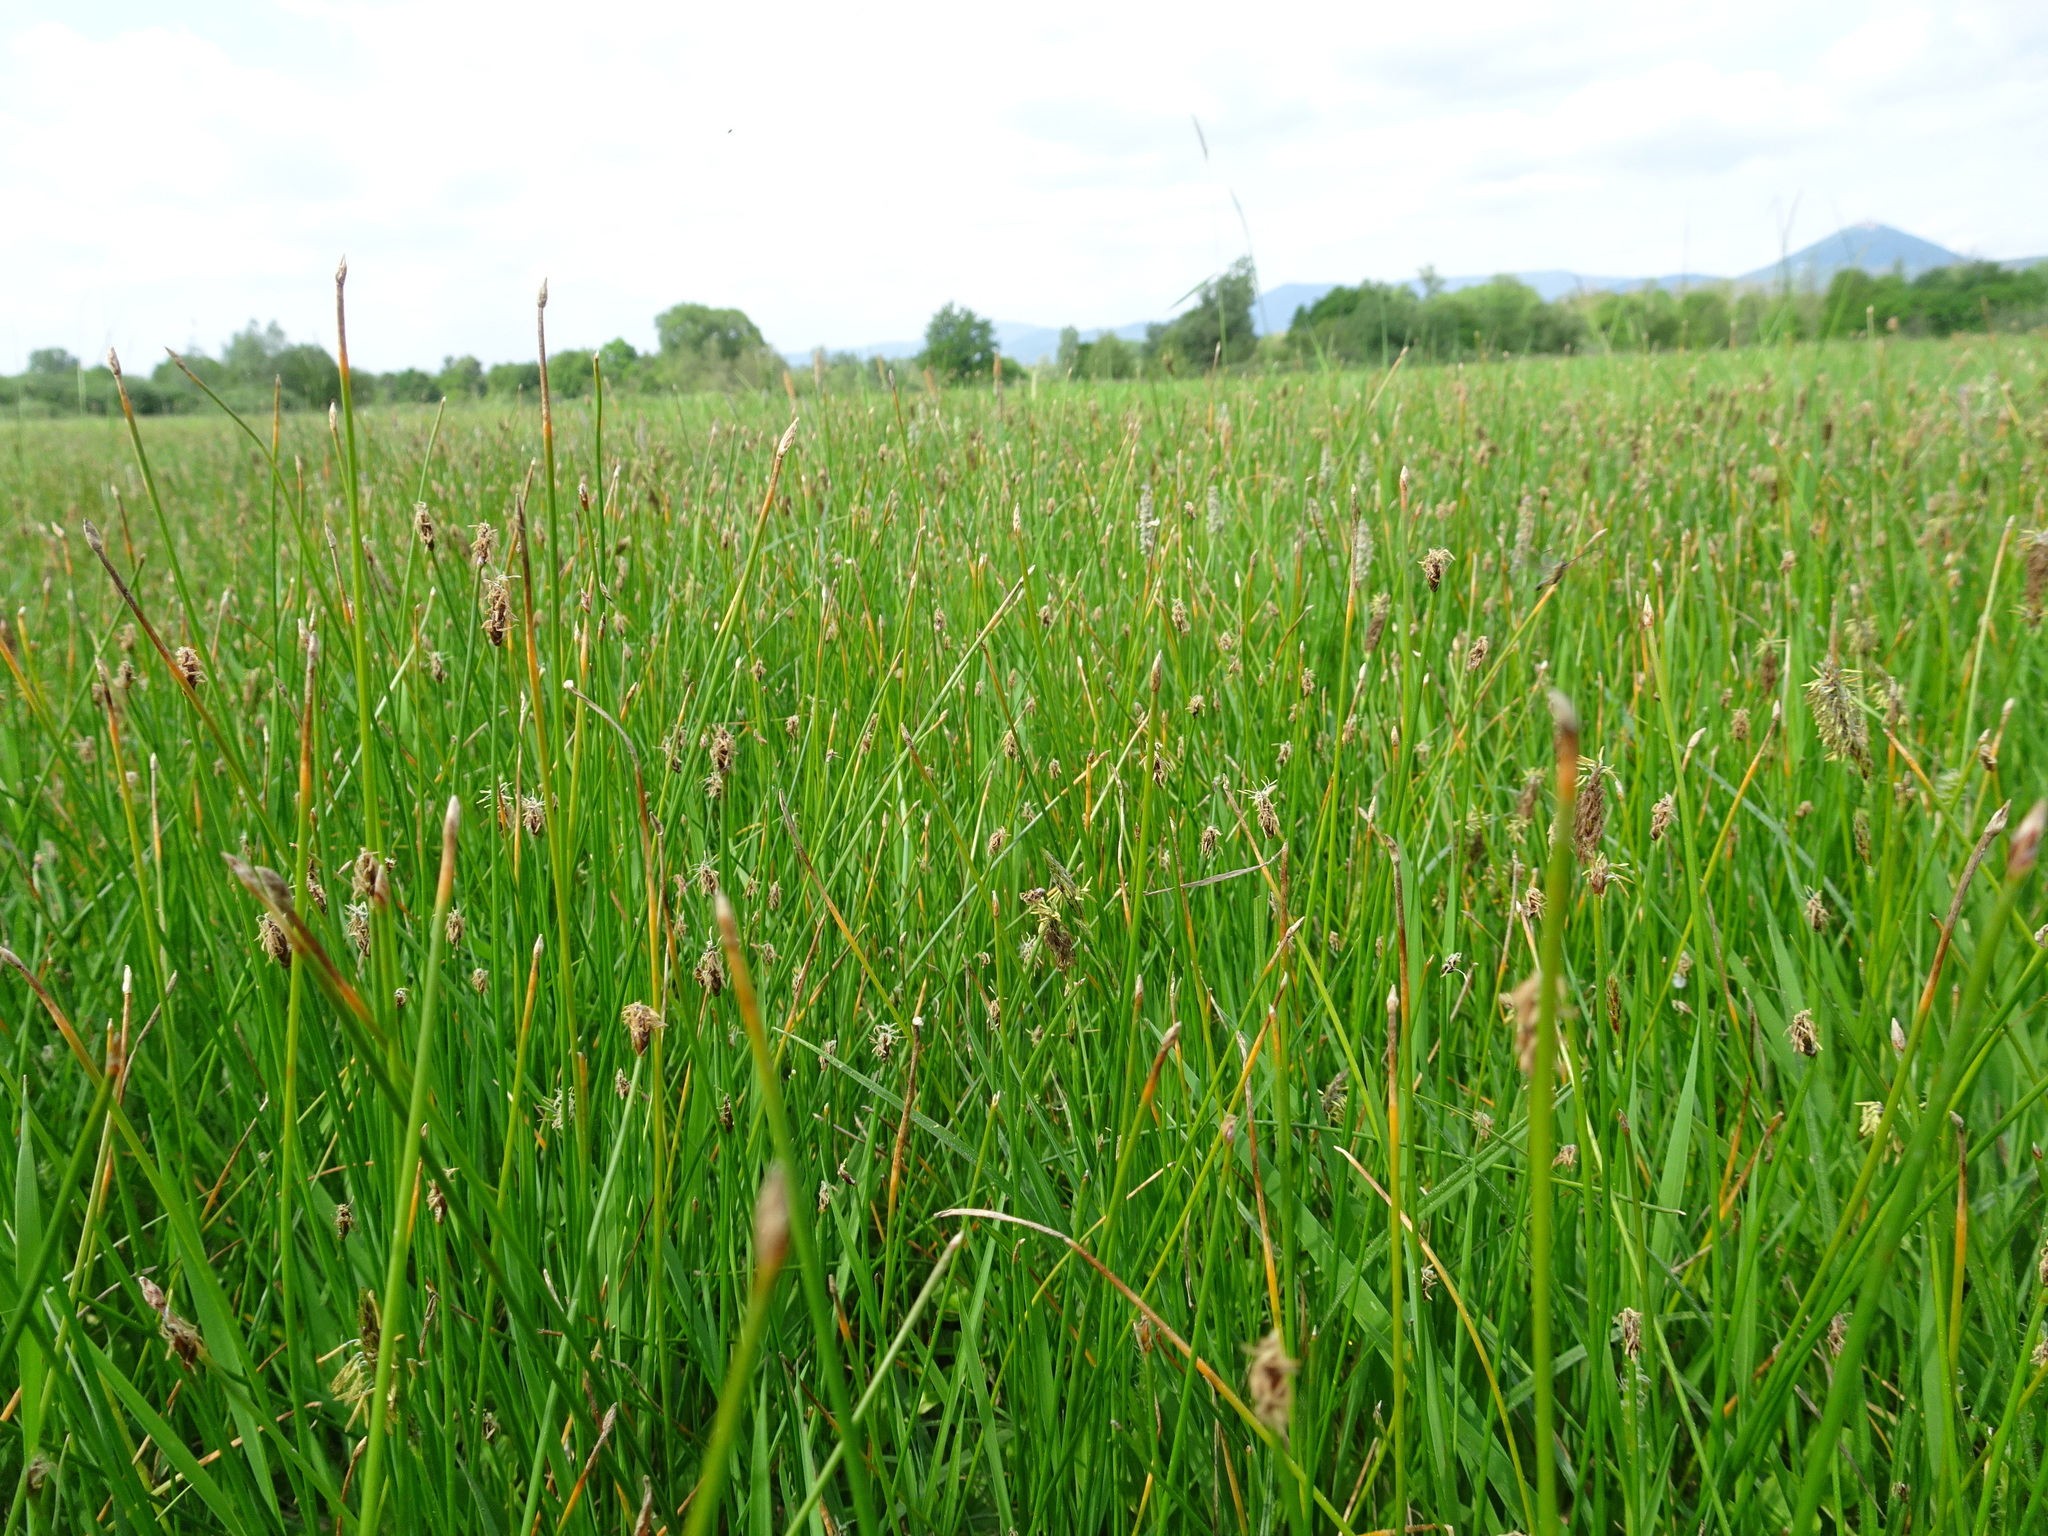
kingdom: Plantae
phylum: Tracheophyta
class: Liliopsida
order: Poales
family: Cyperaceae
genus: Eleocharis
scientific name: Eleocharis palustris
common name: Common spike-rush
